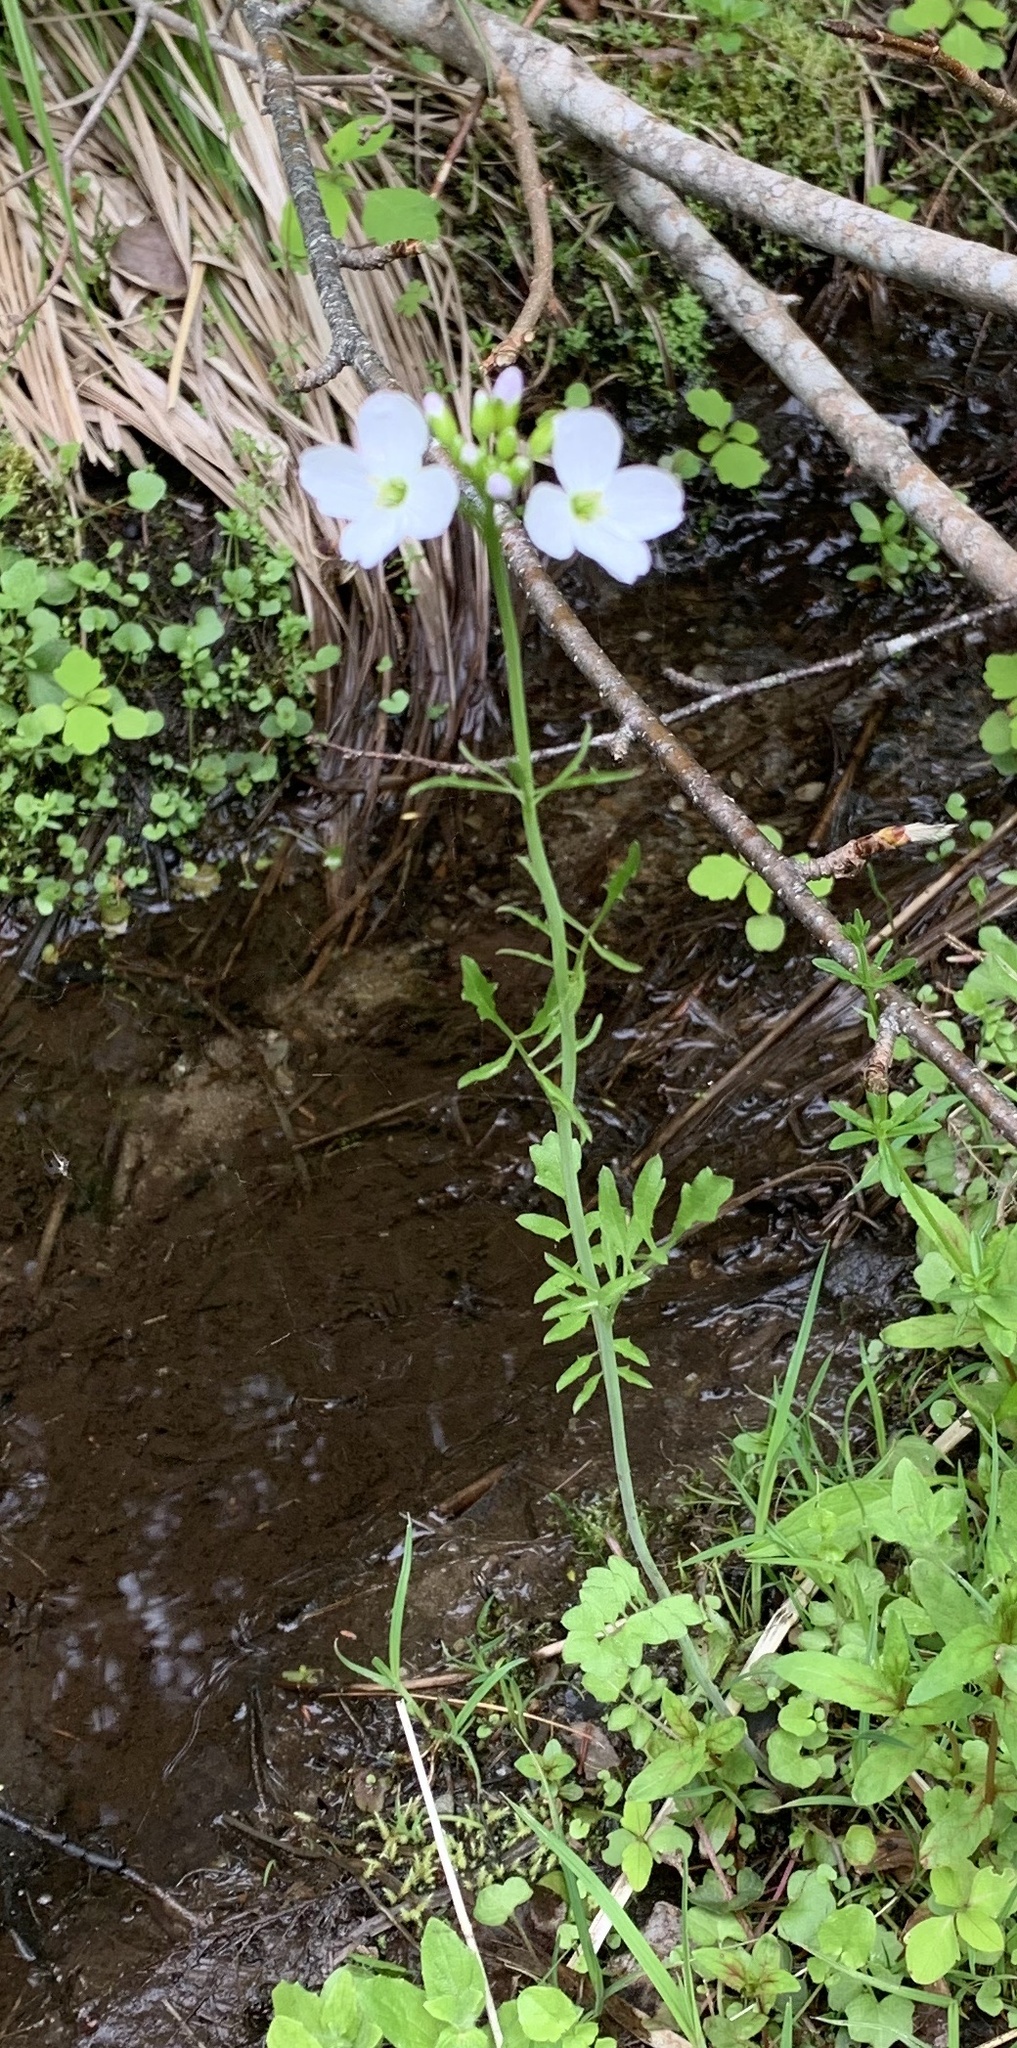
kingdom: Plantae
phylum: Tracheophyta
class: Magnoliopsida
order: Brassicales
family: Brassicaceae
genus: Cardamine
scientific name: Cardamine pratensis
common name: Cuckoo flower
